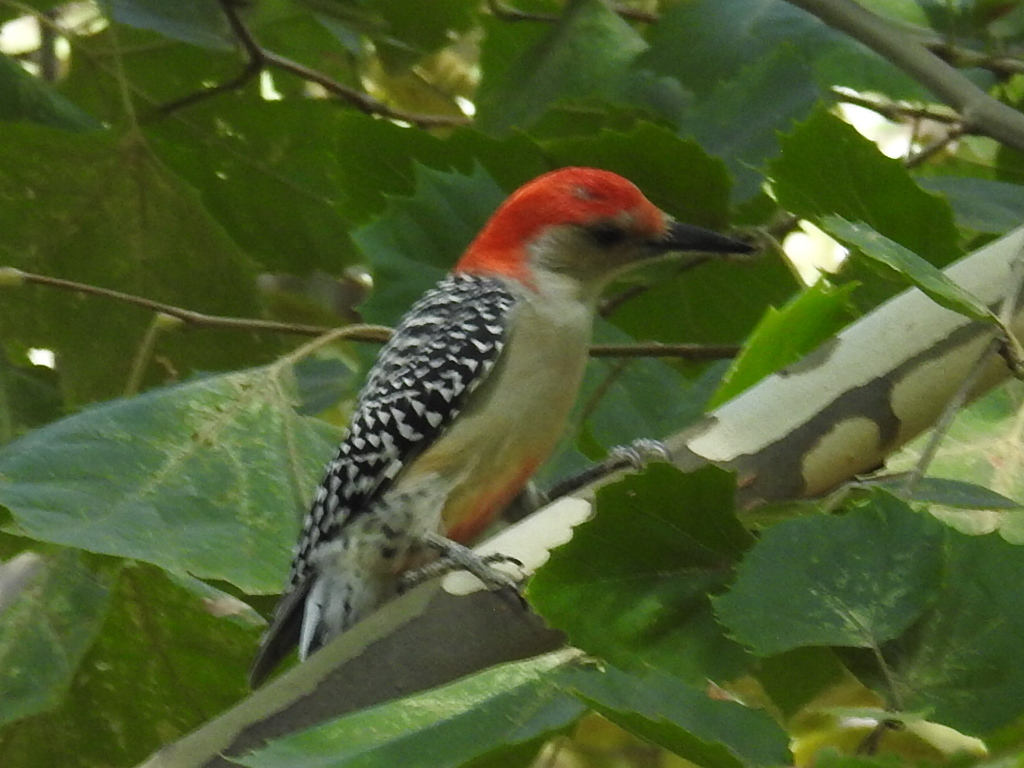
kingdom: Animalia
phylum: Chordata
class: Aves
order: Piciformes
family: Picidae
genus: Melanerpes
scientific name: Melanerpes carolinus
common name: Red-bellied woodpecker
